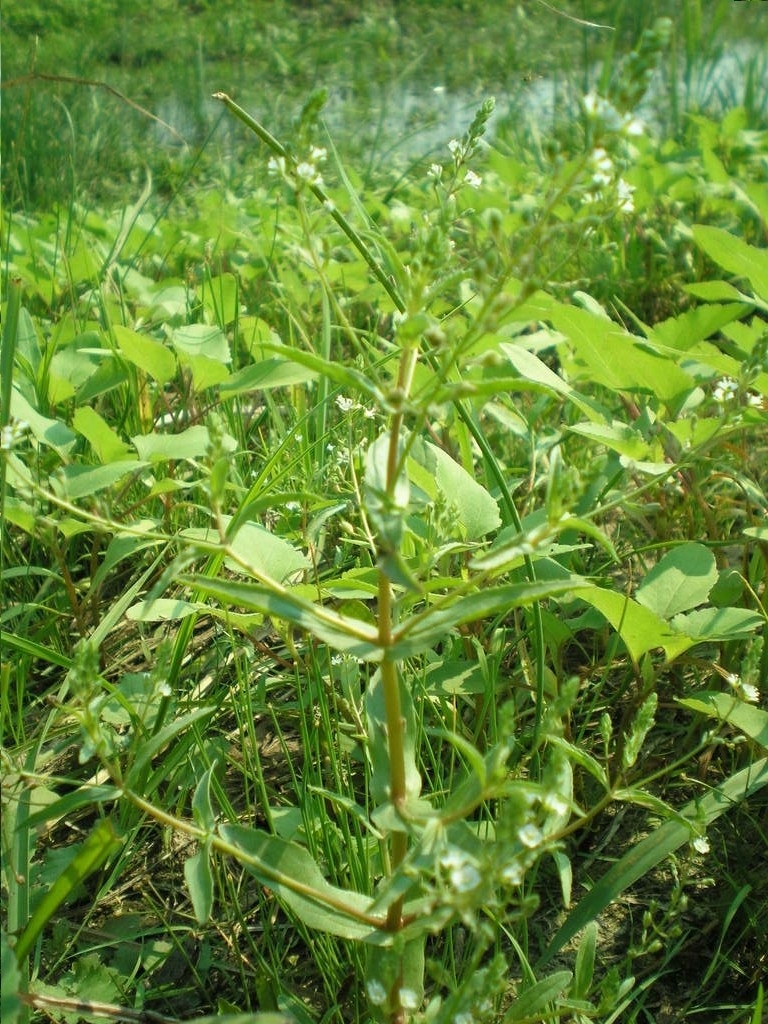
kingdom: Plantae
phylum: Tracheophyta
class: Magnoliopsida
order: Lamiales
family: Plantaginaceae
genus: Veronica
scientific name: Veronica anagallis-aquatica
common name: Water speedwell
